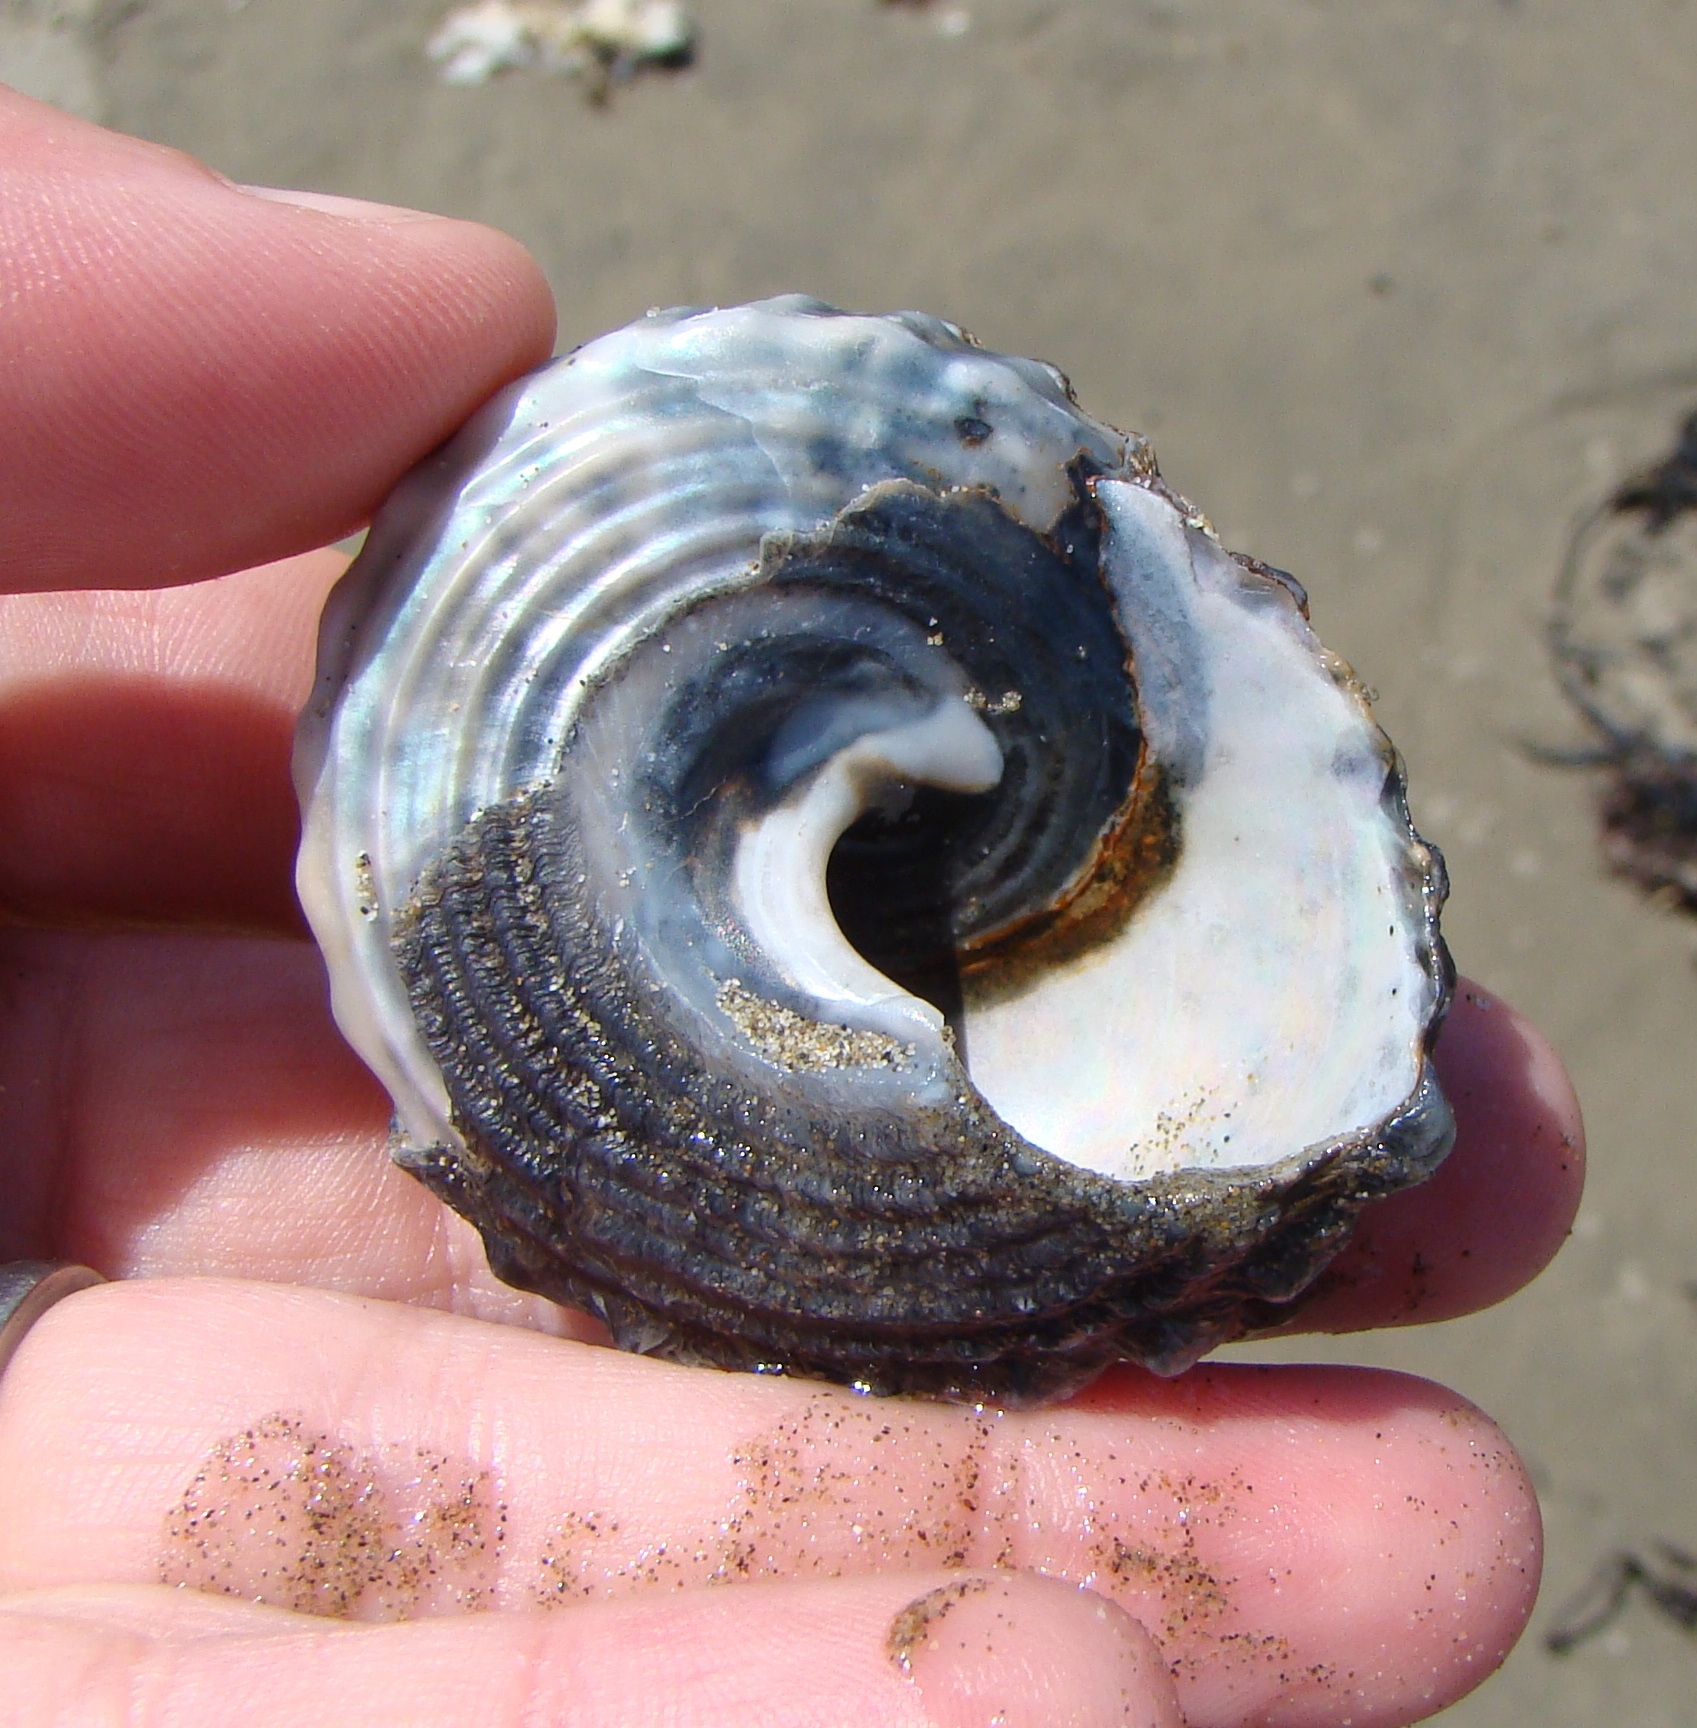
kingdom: Animalia
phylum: Mollusca
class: Gastropoda
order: Trochida
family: Turbinidae
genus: Cookia
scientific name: Cookia sulcata
